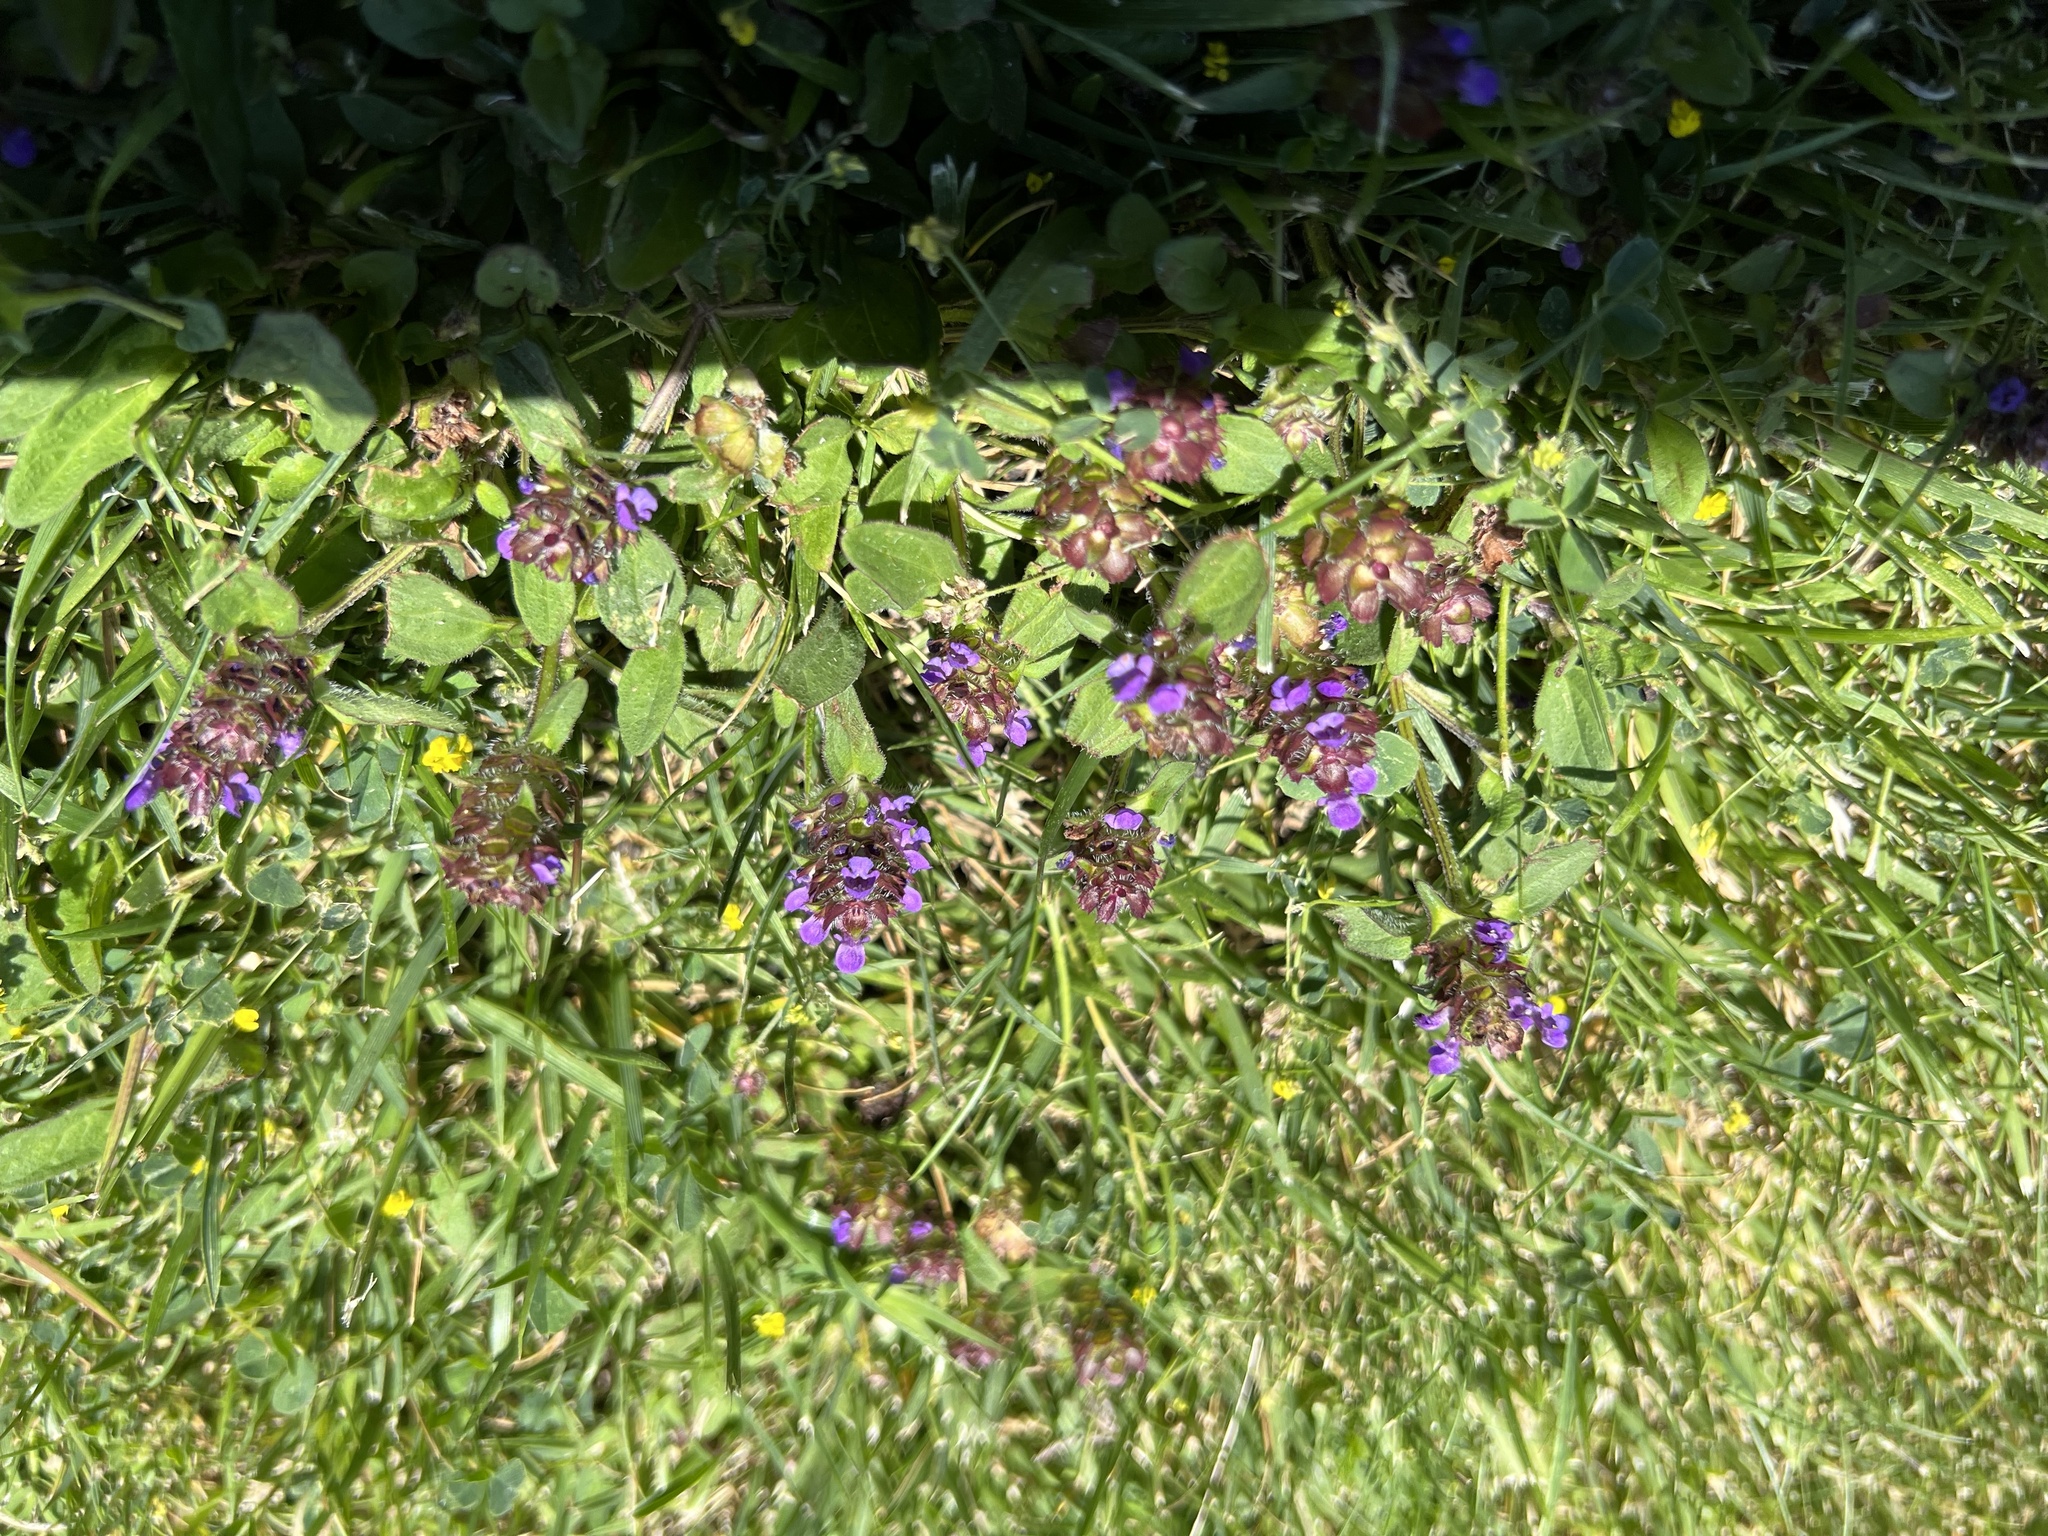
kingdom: Plantae
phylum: Tracheophyta
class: Magnoliopsida
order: Lamiales
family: Lamiaceae
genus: Prunella
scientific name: Prunella vulgaris
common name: Heal-all
